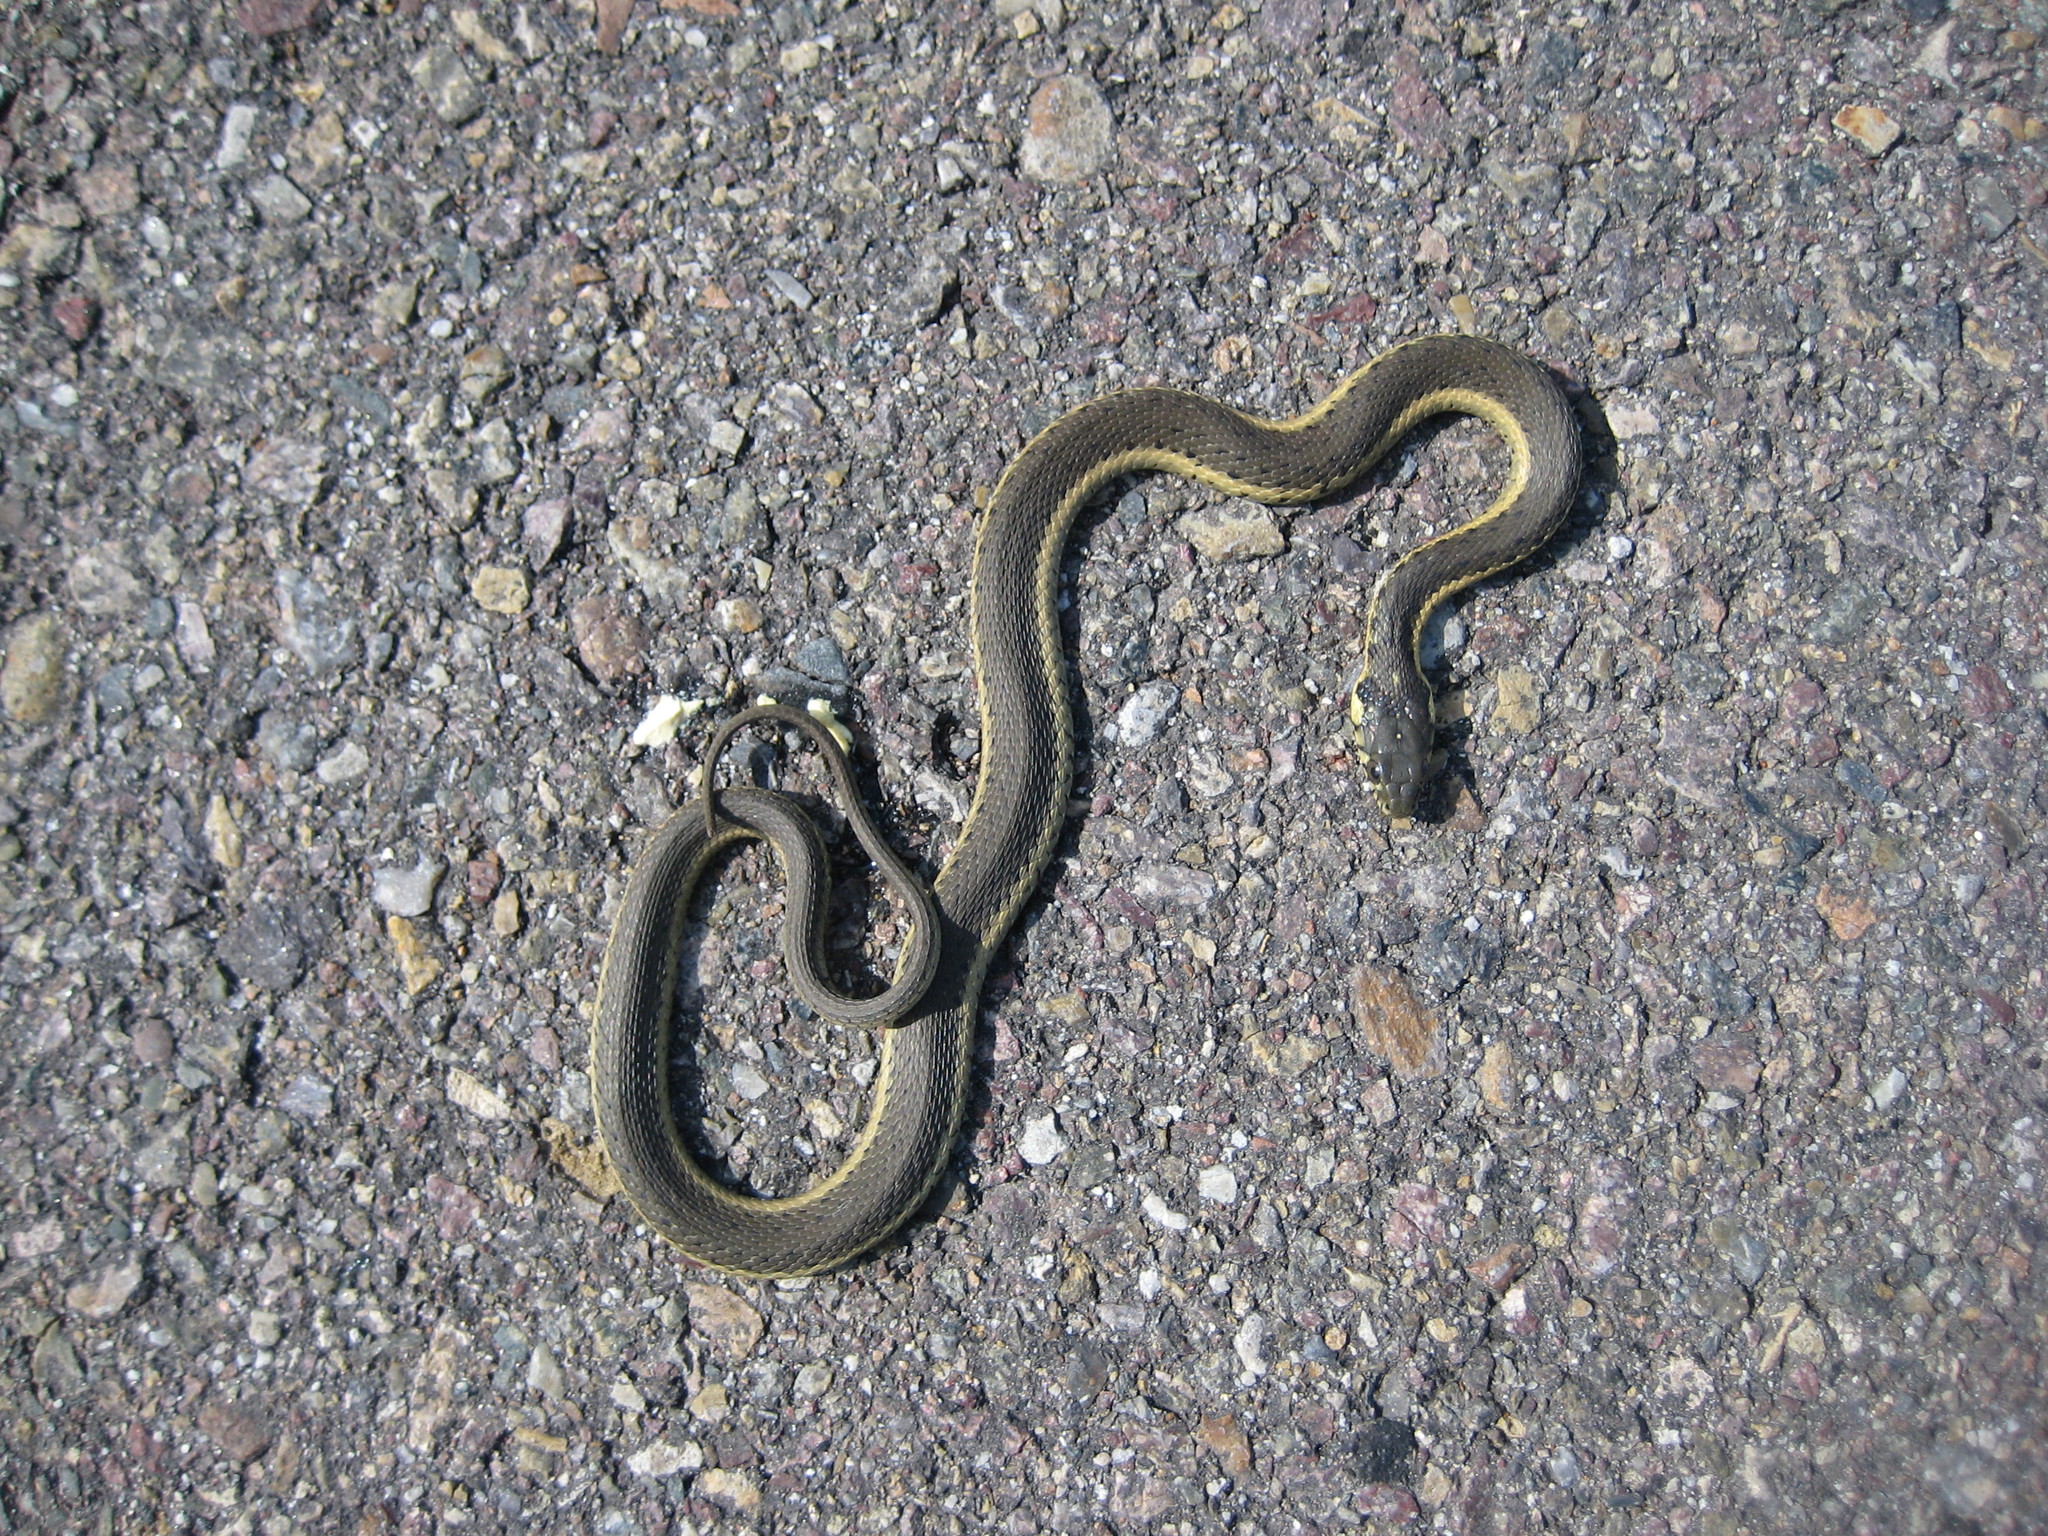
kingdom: Animalia
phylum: Chordata
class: Squamata
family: Colubridae
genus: Thamnophis
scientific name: Thamnophis hammondii
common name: Two-striped garter snake
